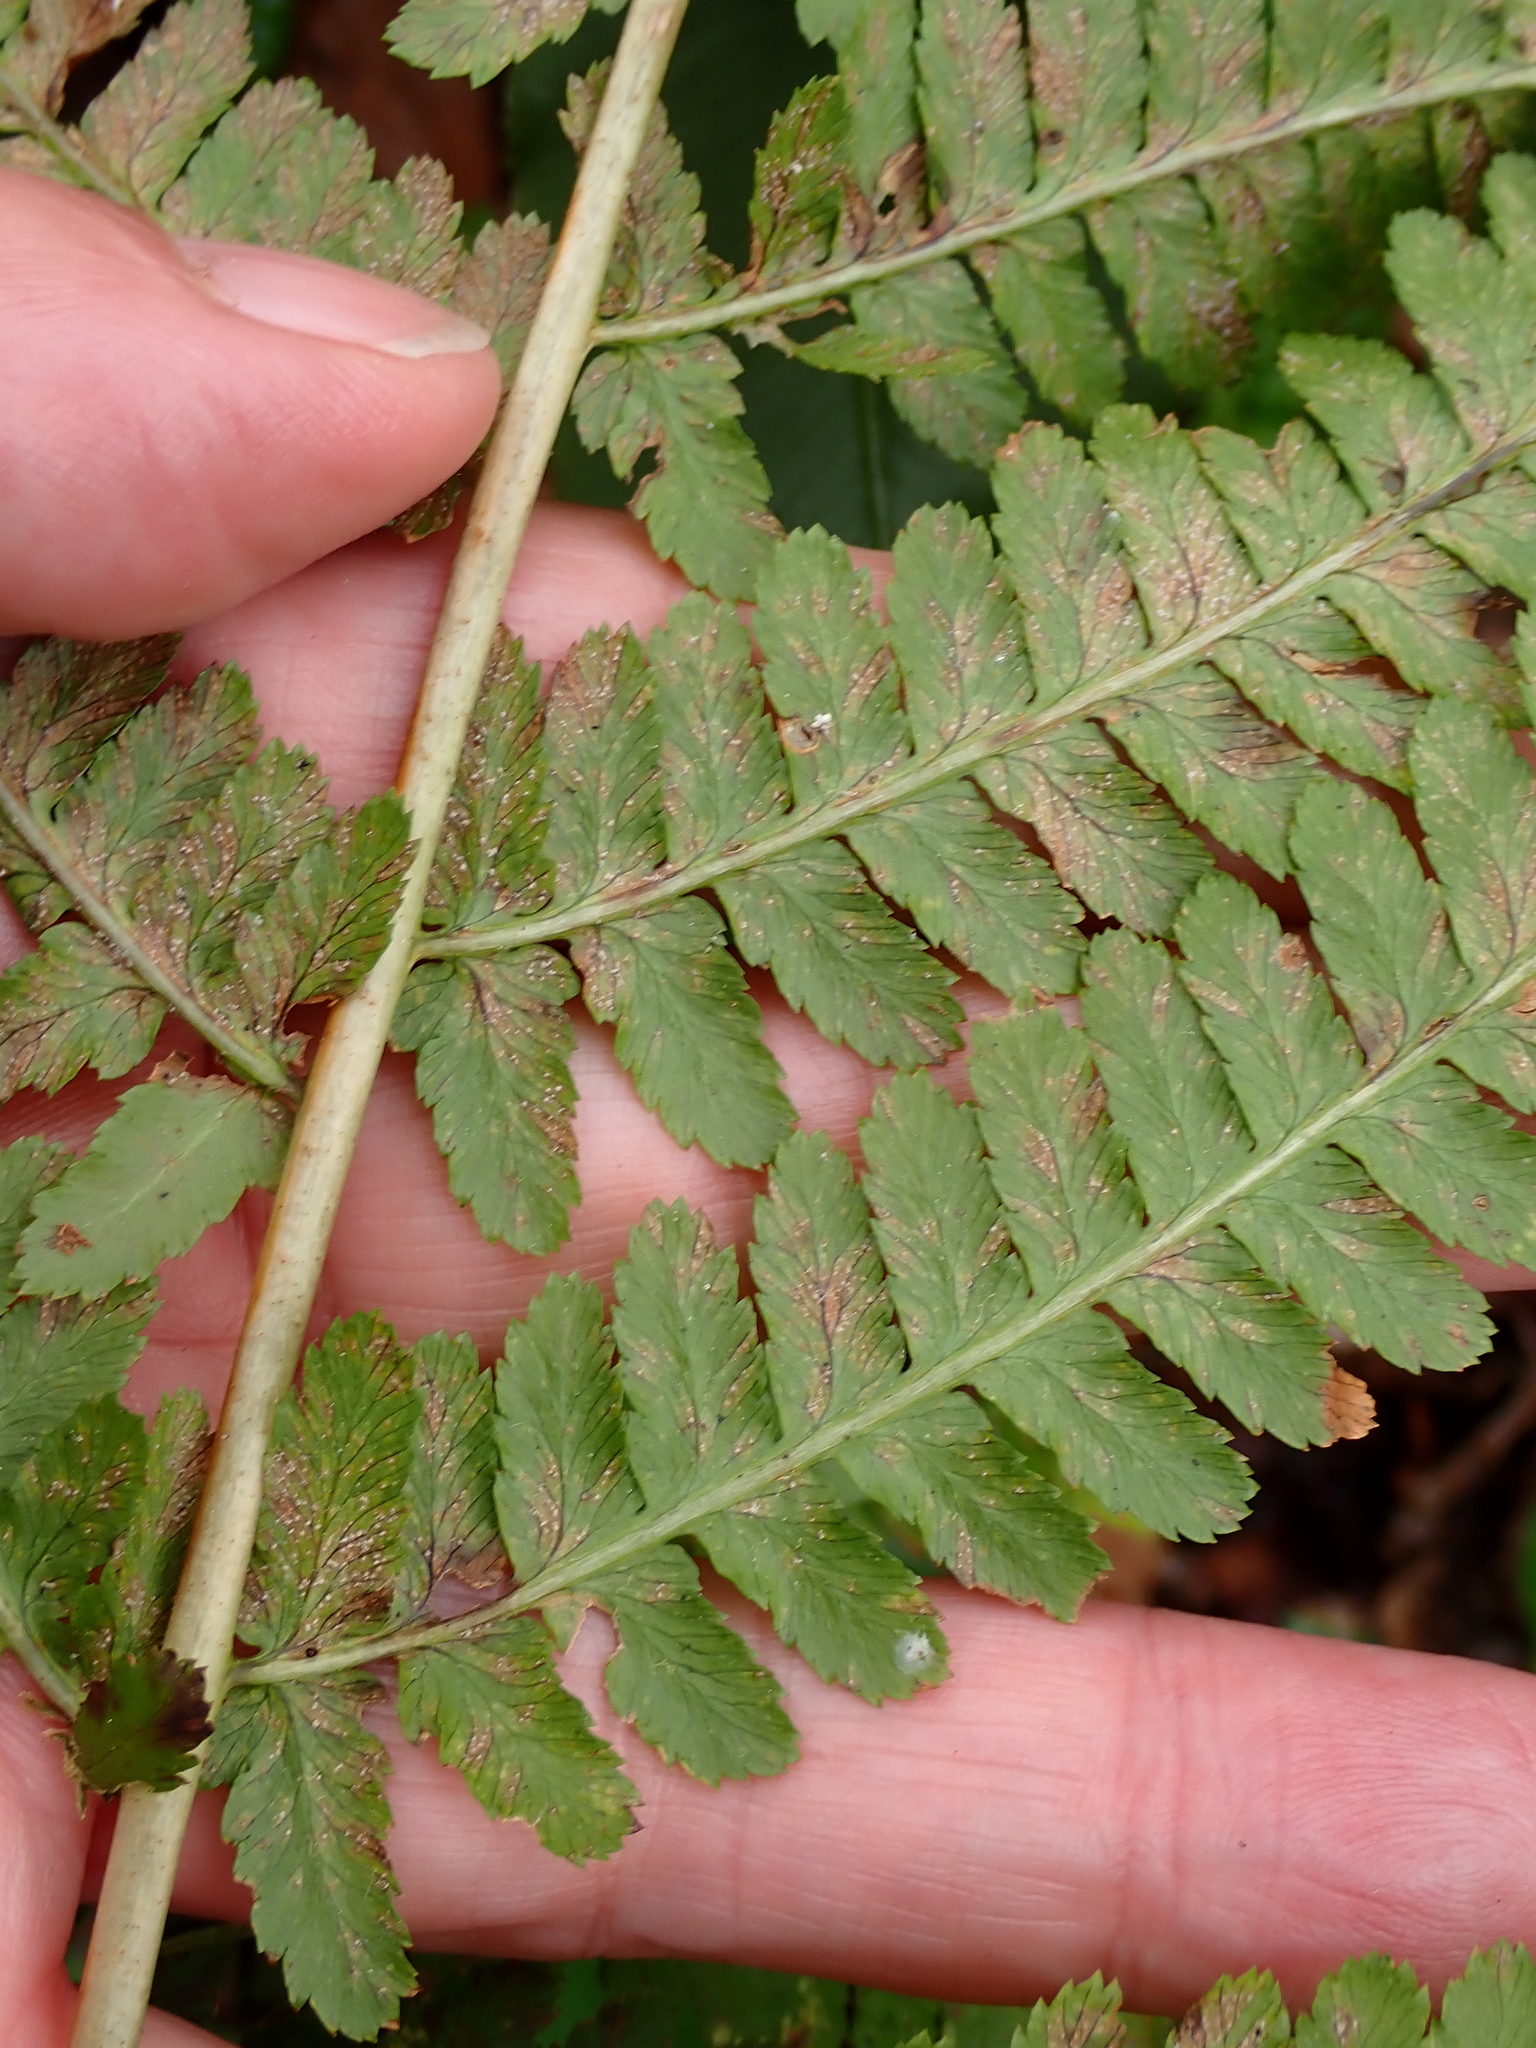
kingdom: Plantae
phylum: Tracheophyta
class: Polypodiopsida
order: Polypodiales
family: Dryopteridaceae
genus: Dryopteris
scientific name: Dryopteris filix-mas
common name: Male fern
